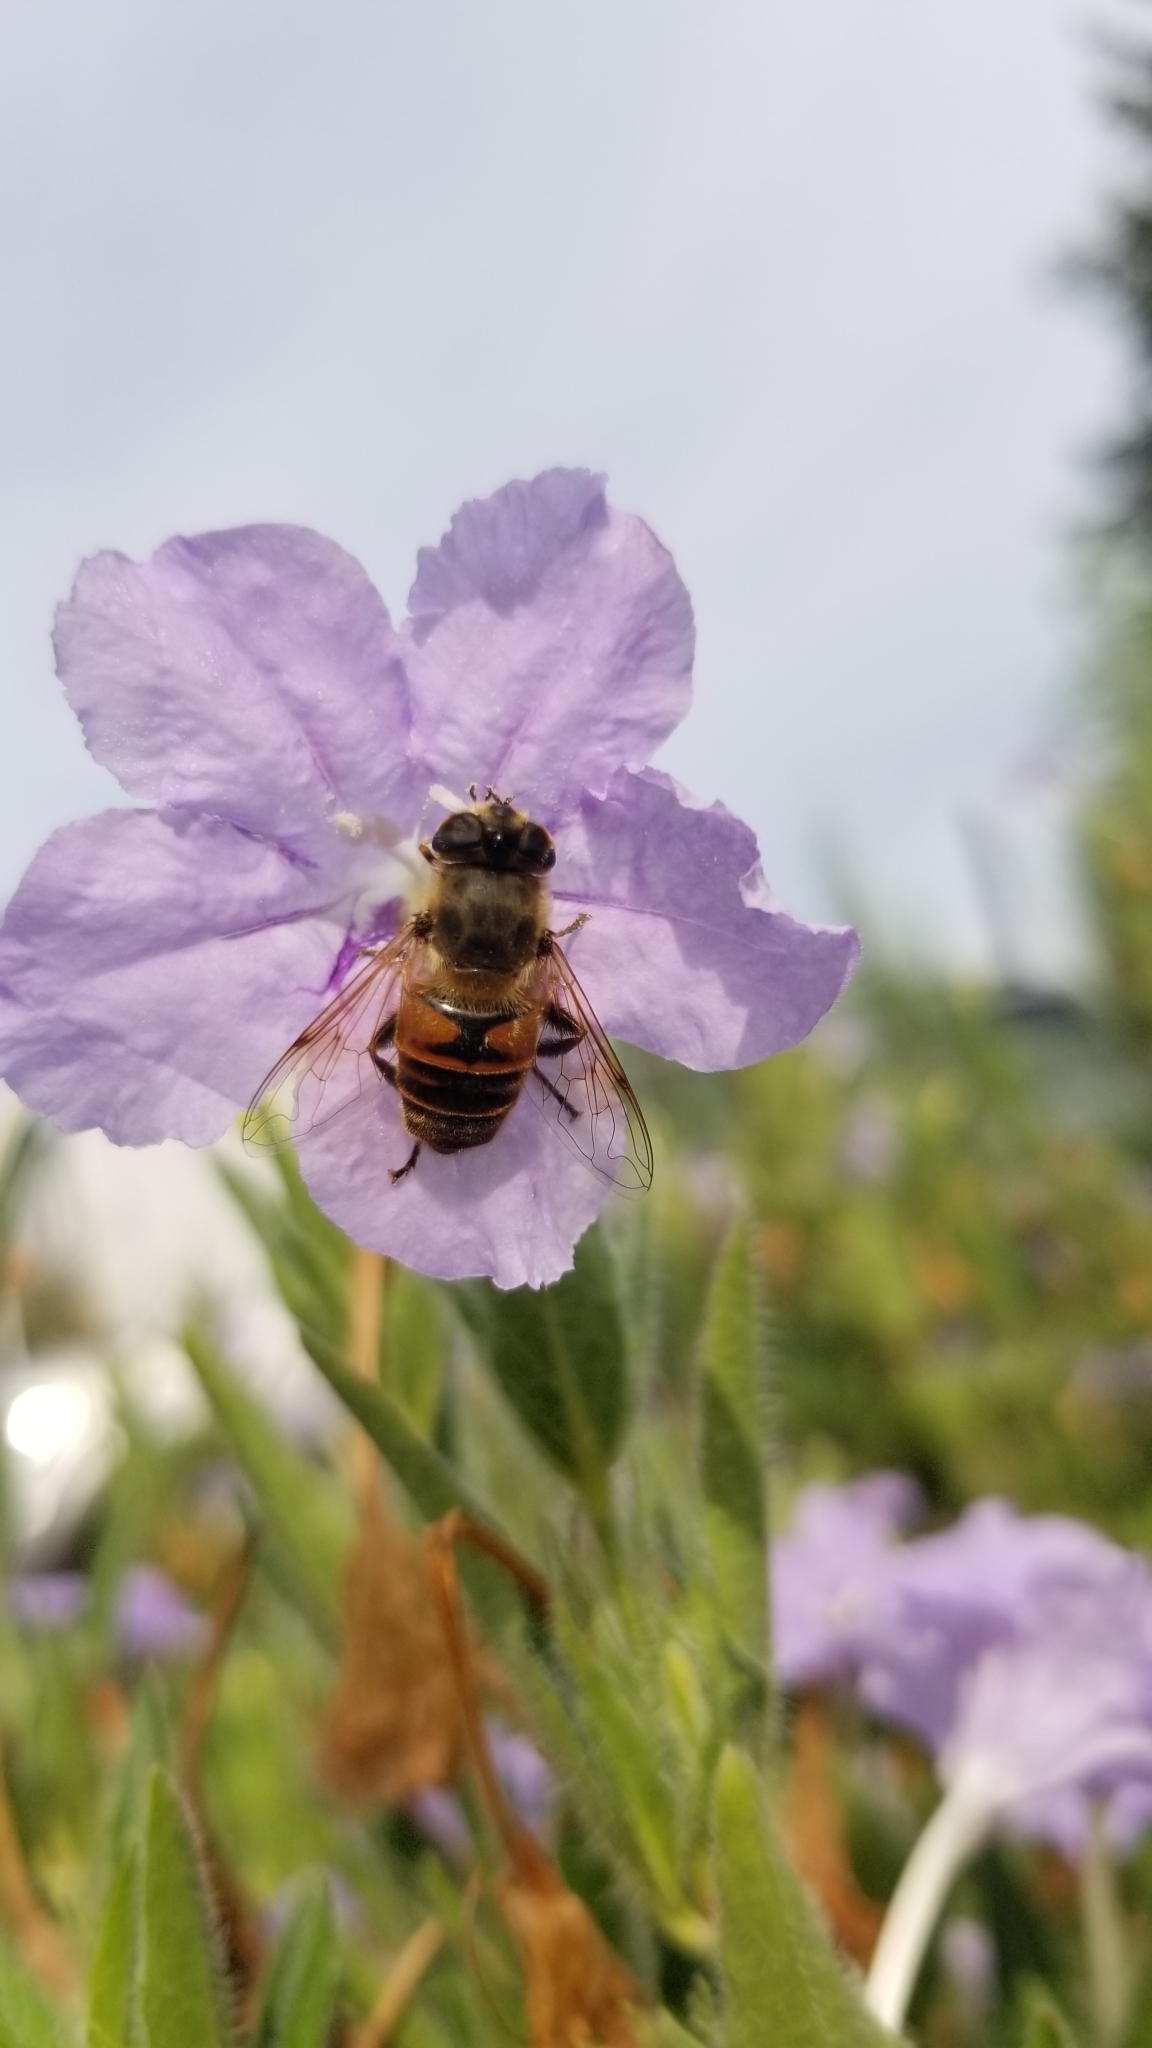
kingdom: Animalia
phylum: Arthropoda
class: Insecta
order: Diptera
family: Syrphidae
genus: Eristalis
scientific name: Eristalis tenax
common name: Drone fly
